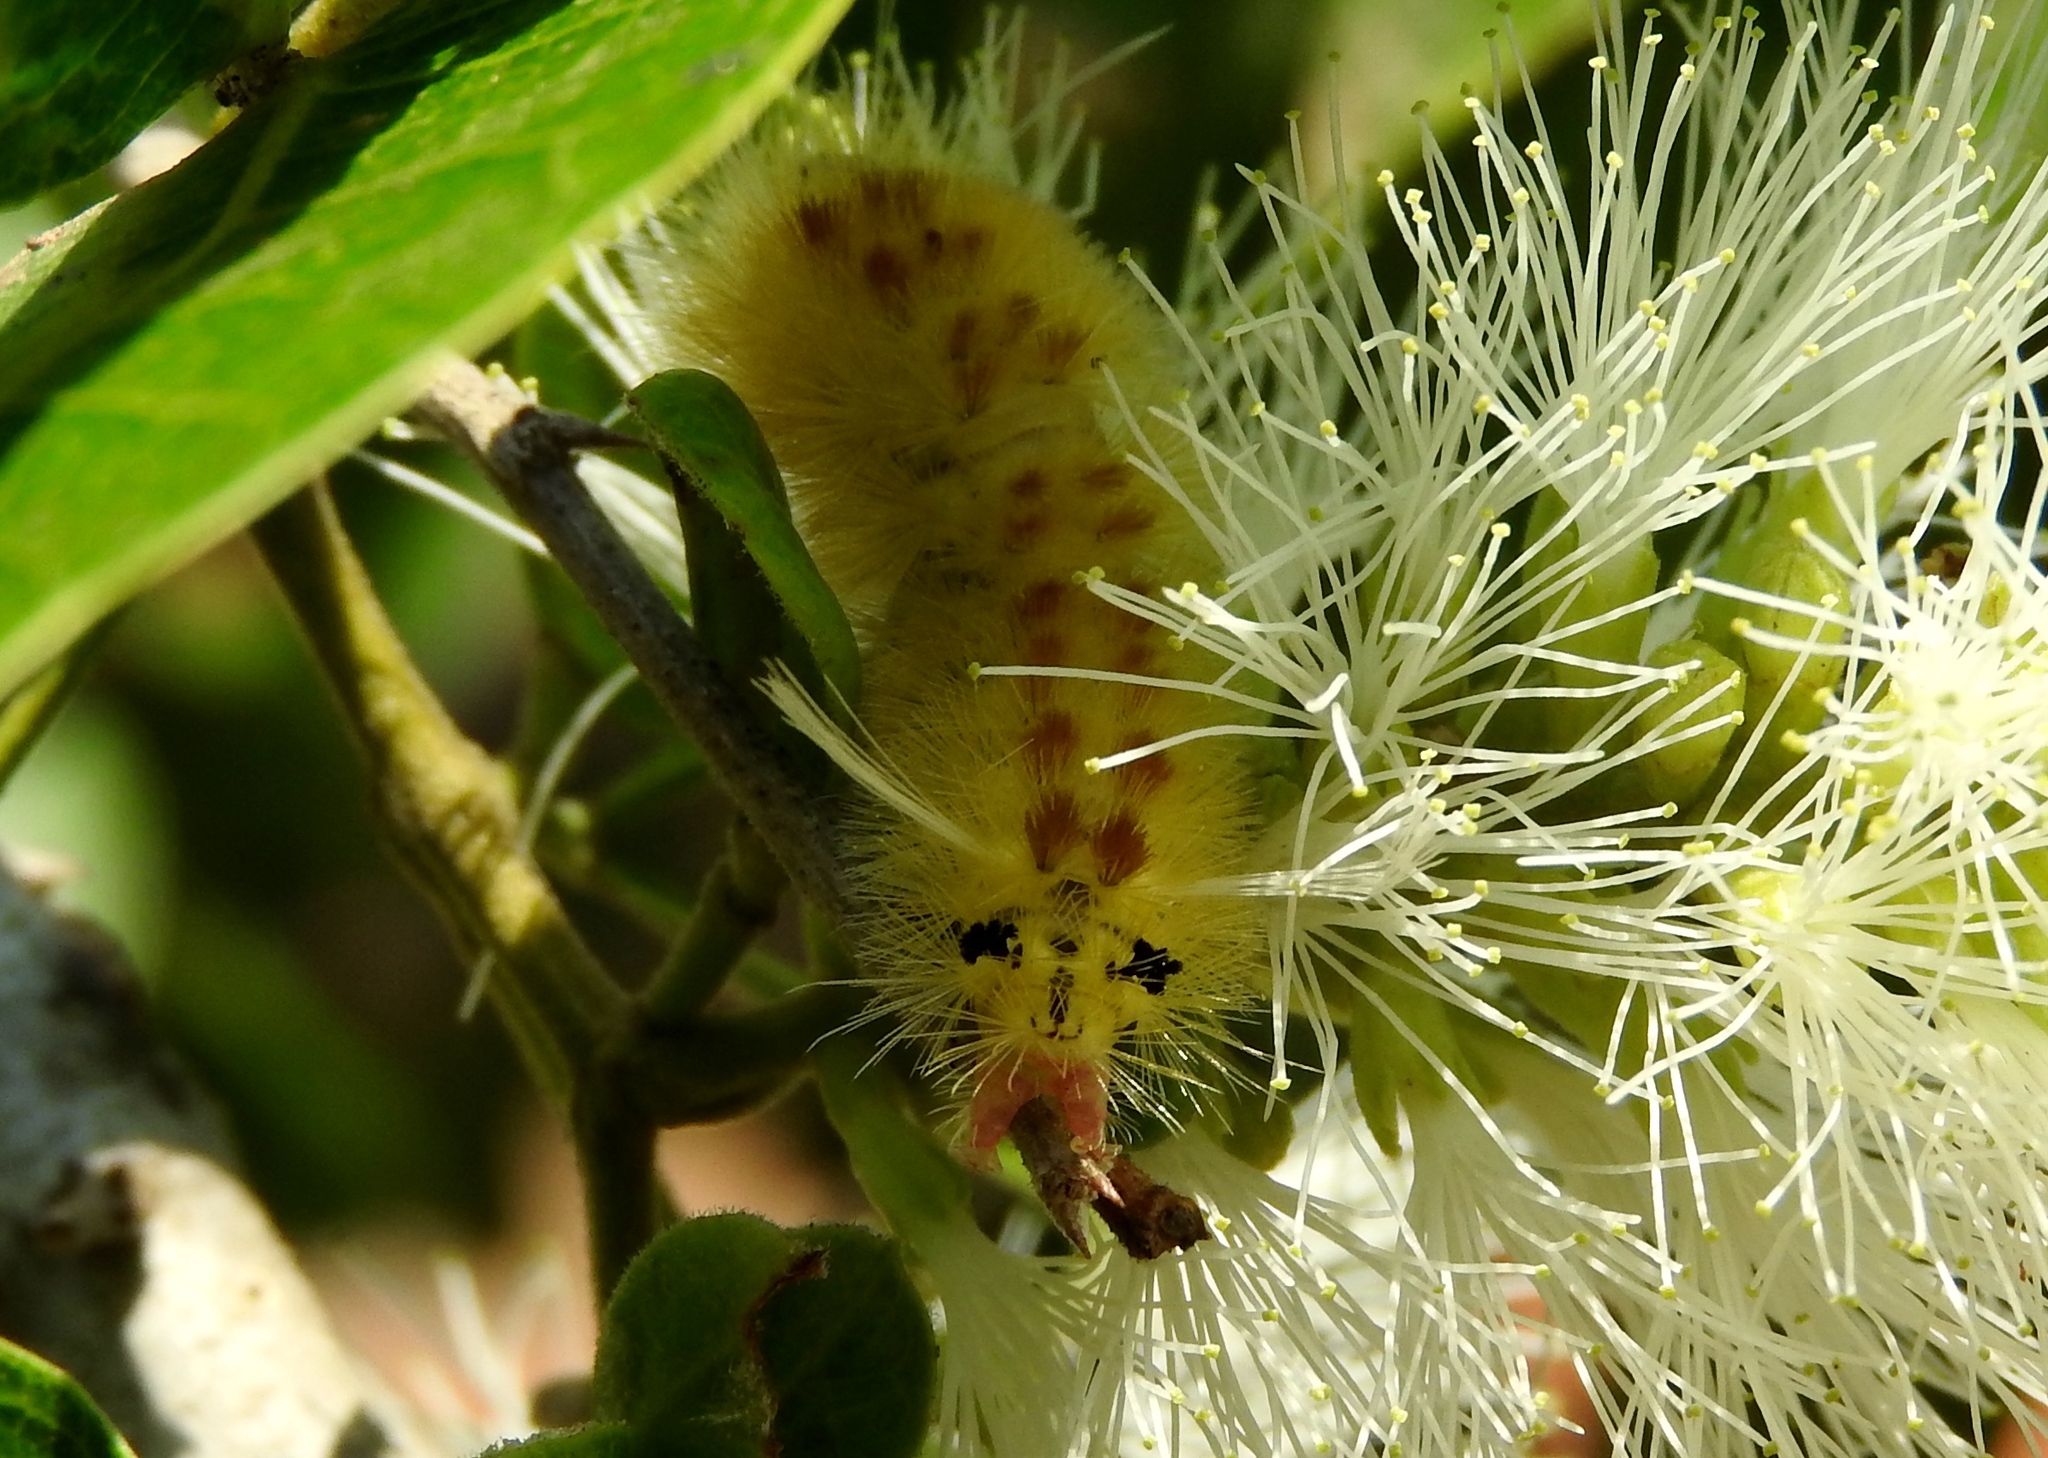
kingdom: Animalia
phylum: Arthropoda
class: Insecta
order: Lepidoptera
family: Erebidae
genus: Arctiinae
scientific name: Arctiinae
